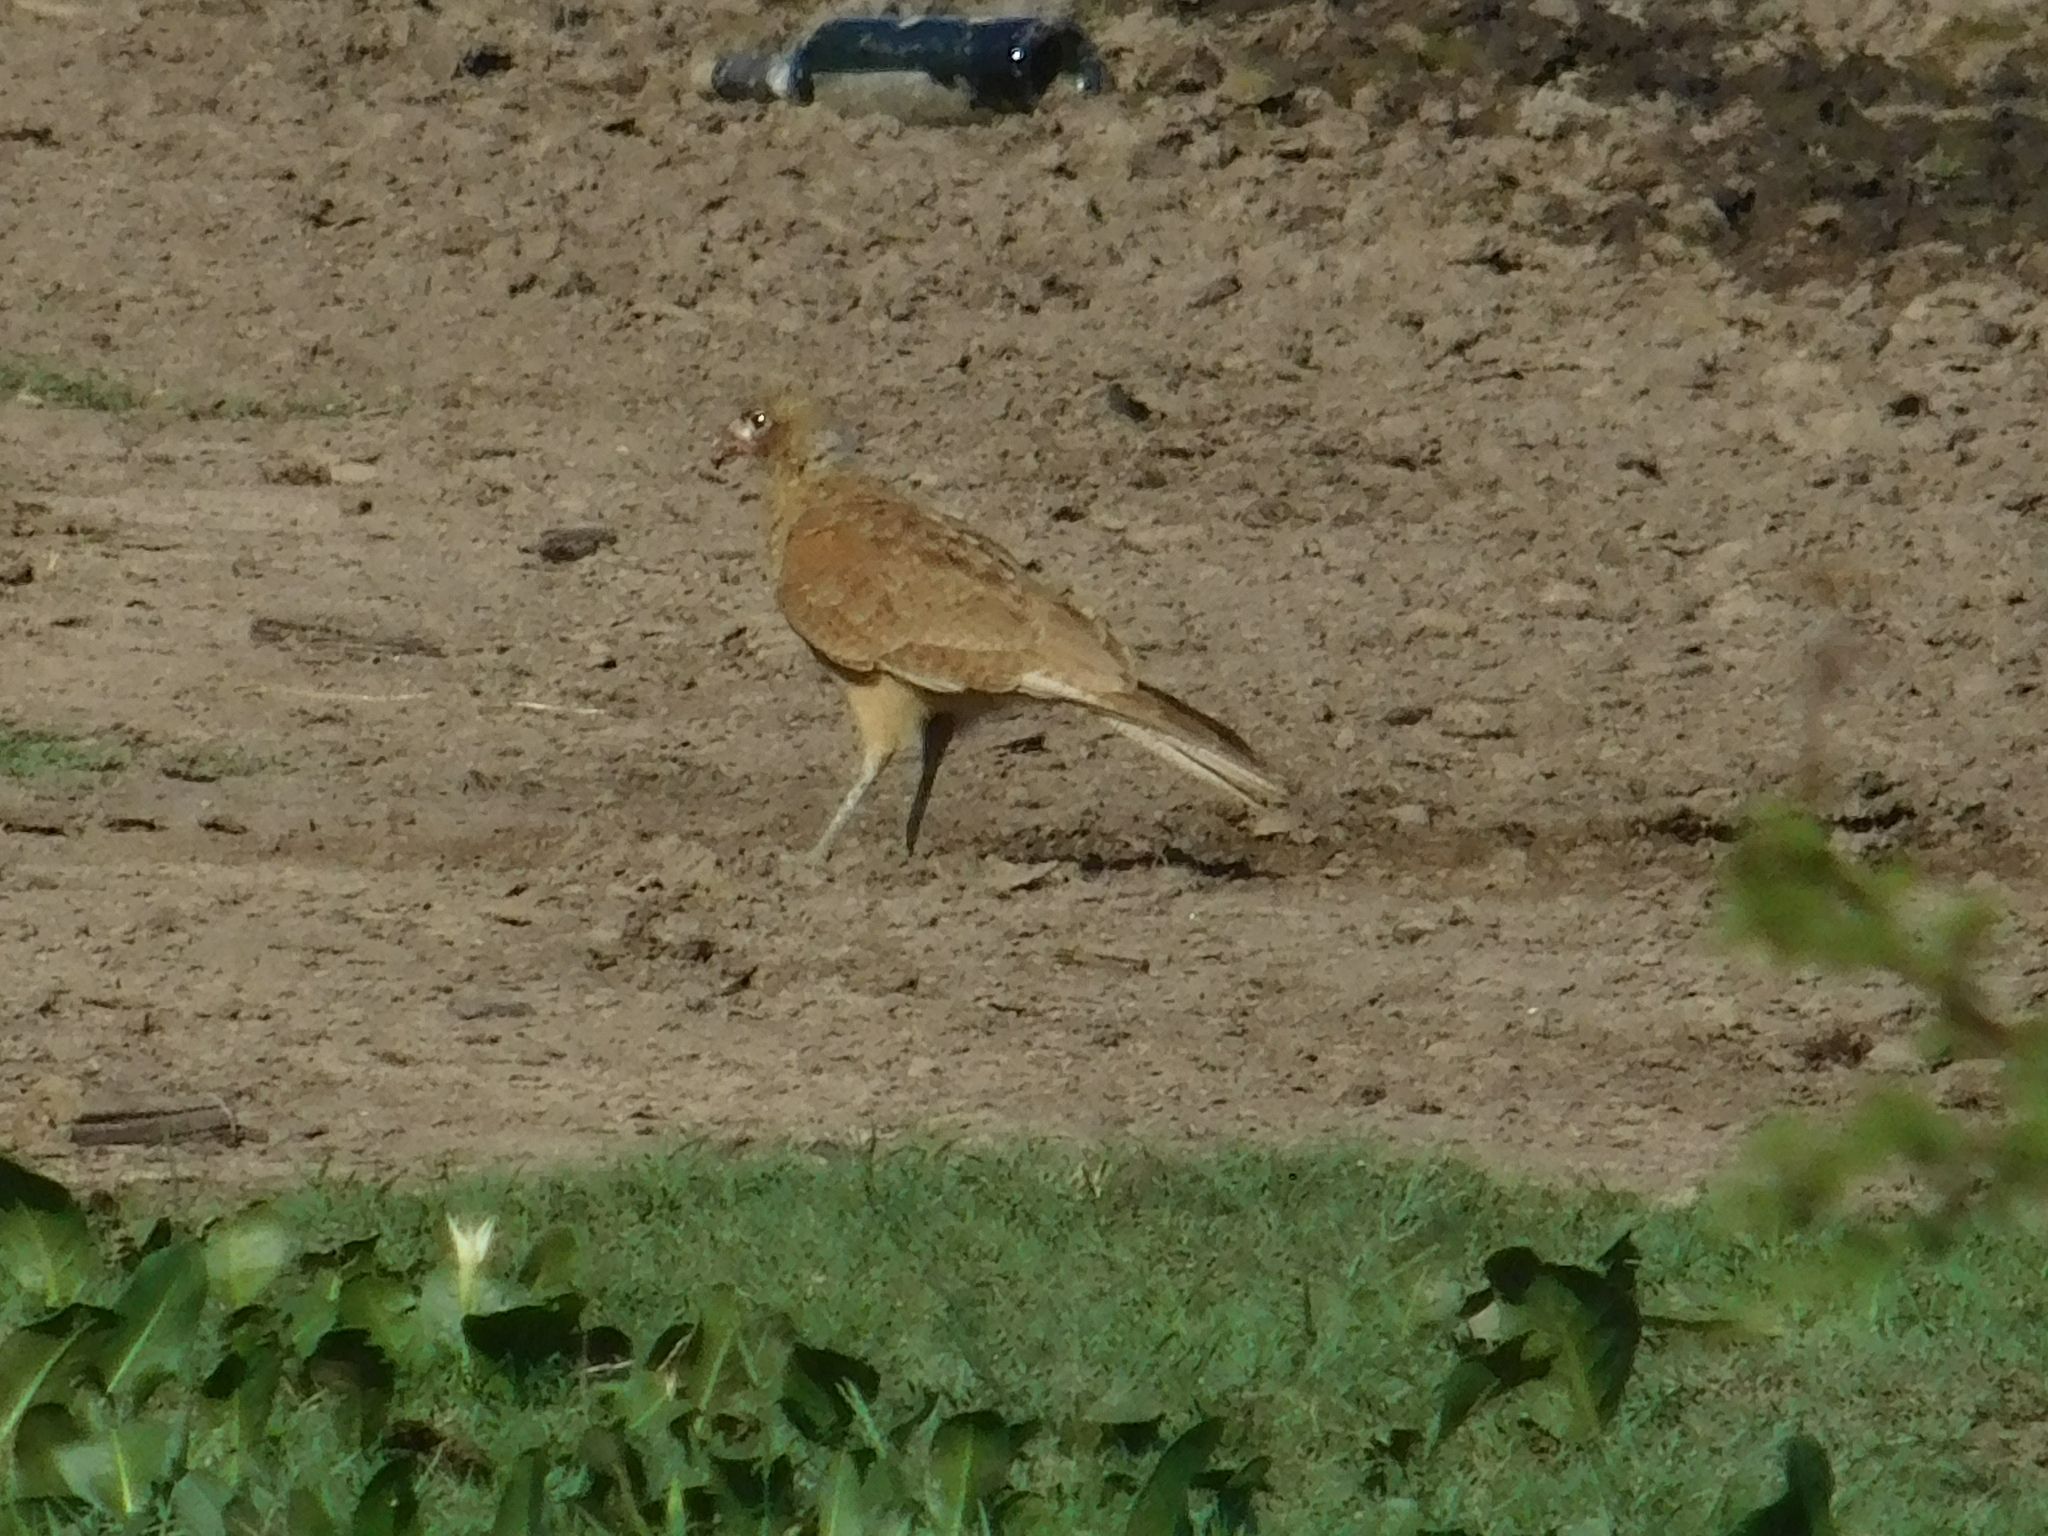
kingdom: Animalia
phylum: Chordata
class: Aves
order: Falconiformes
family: Falconidae
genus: Daptrius
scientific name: Daptrius
